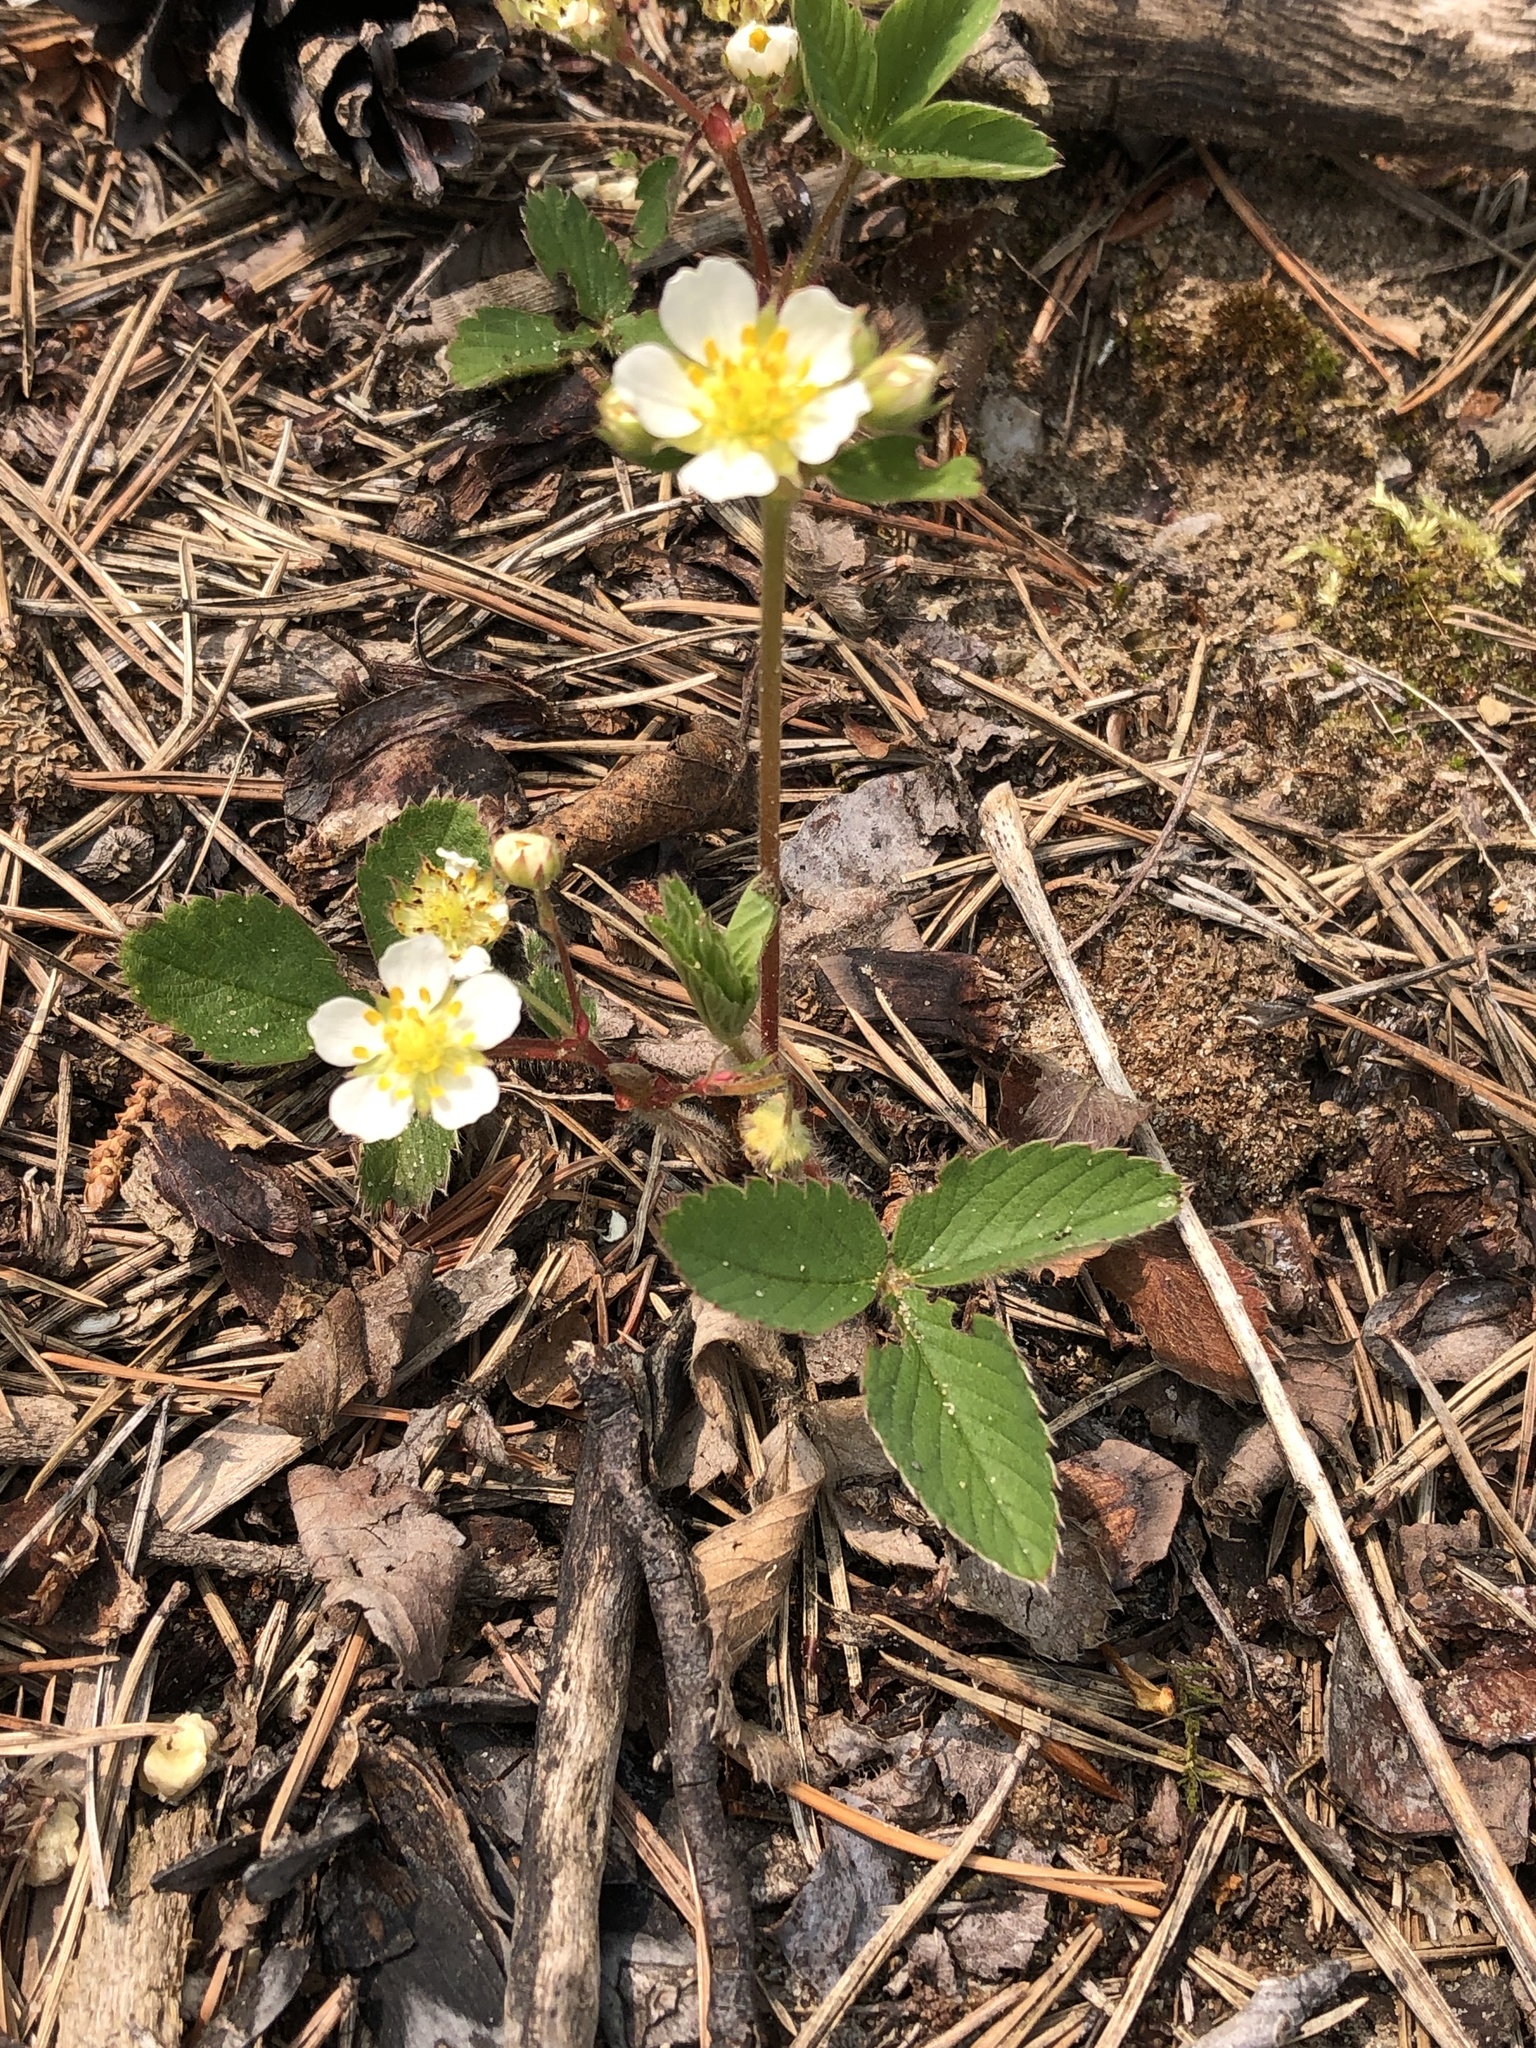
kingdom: Plantae
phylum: Tracheophyta
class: Magnoliopsida
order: Rosales
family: Rosaceae
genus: Fragaria
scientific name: Fragaria virginiana
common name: Thickleaved wild strawberry
